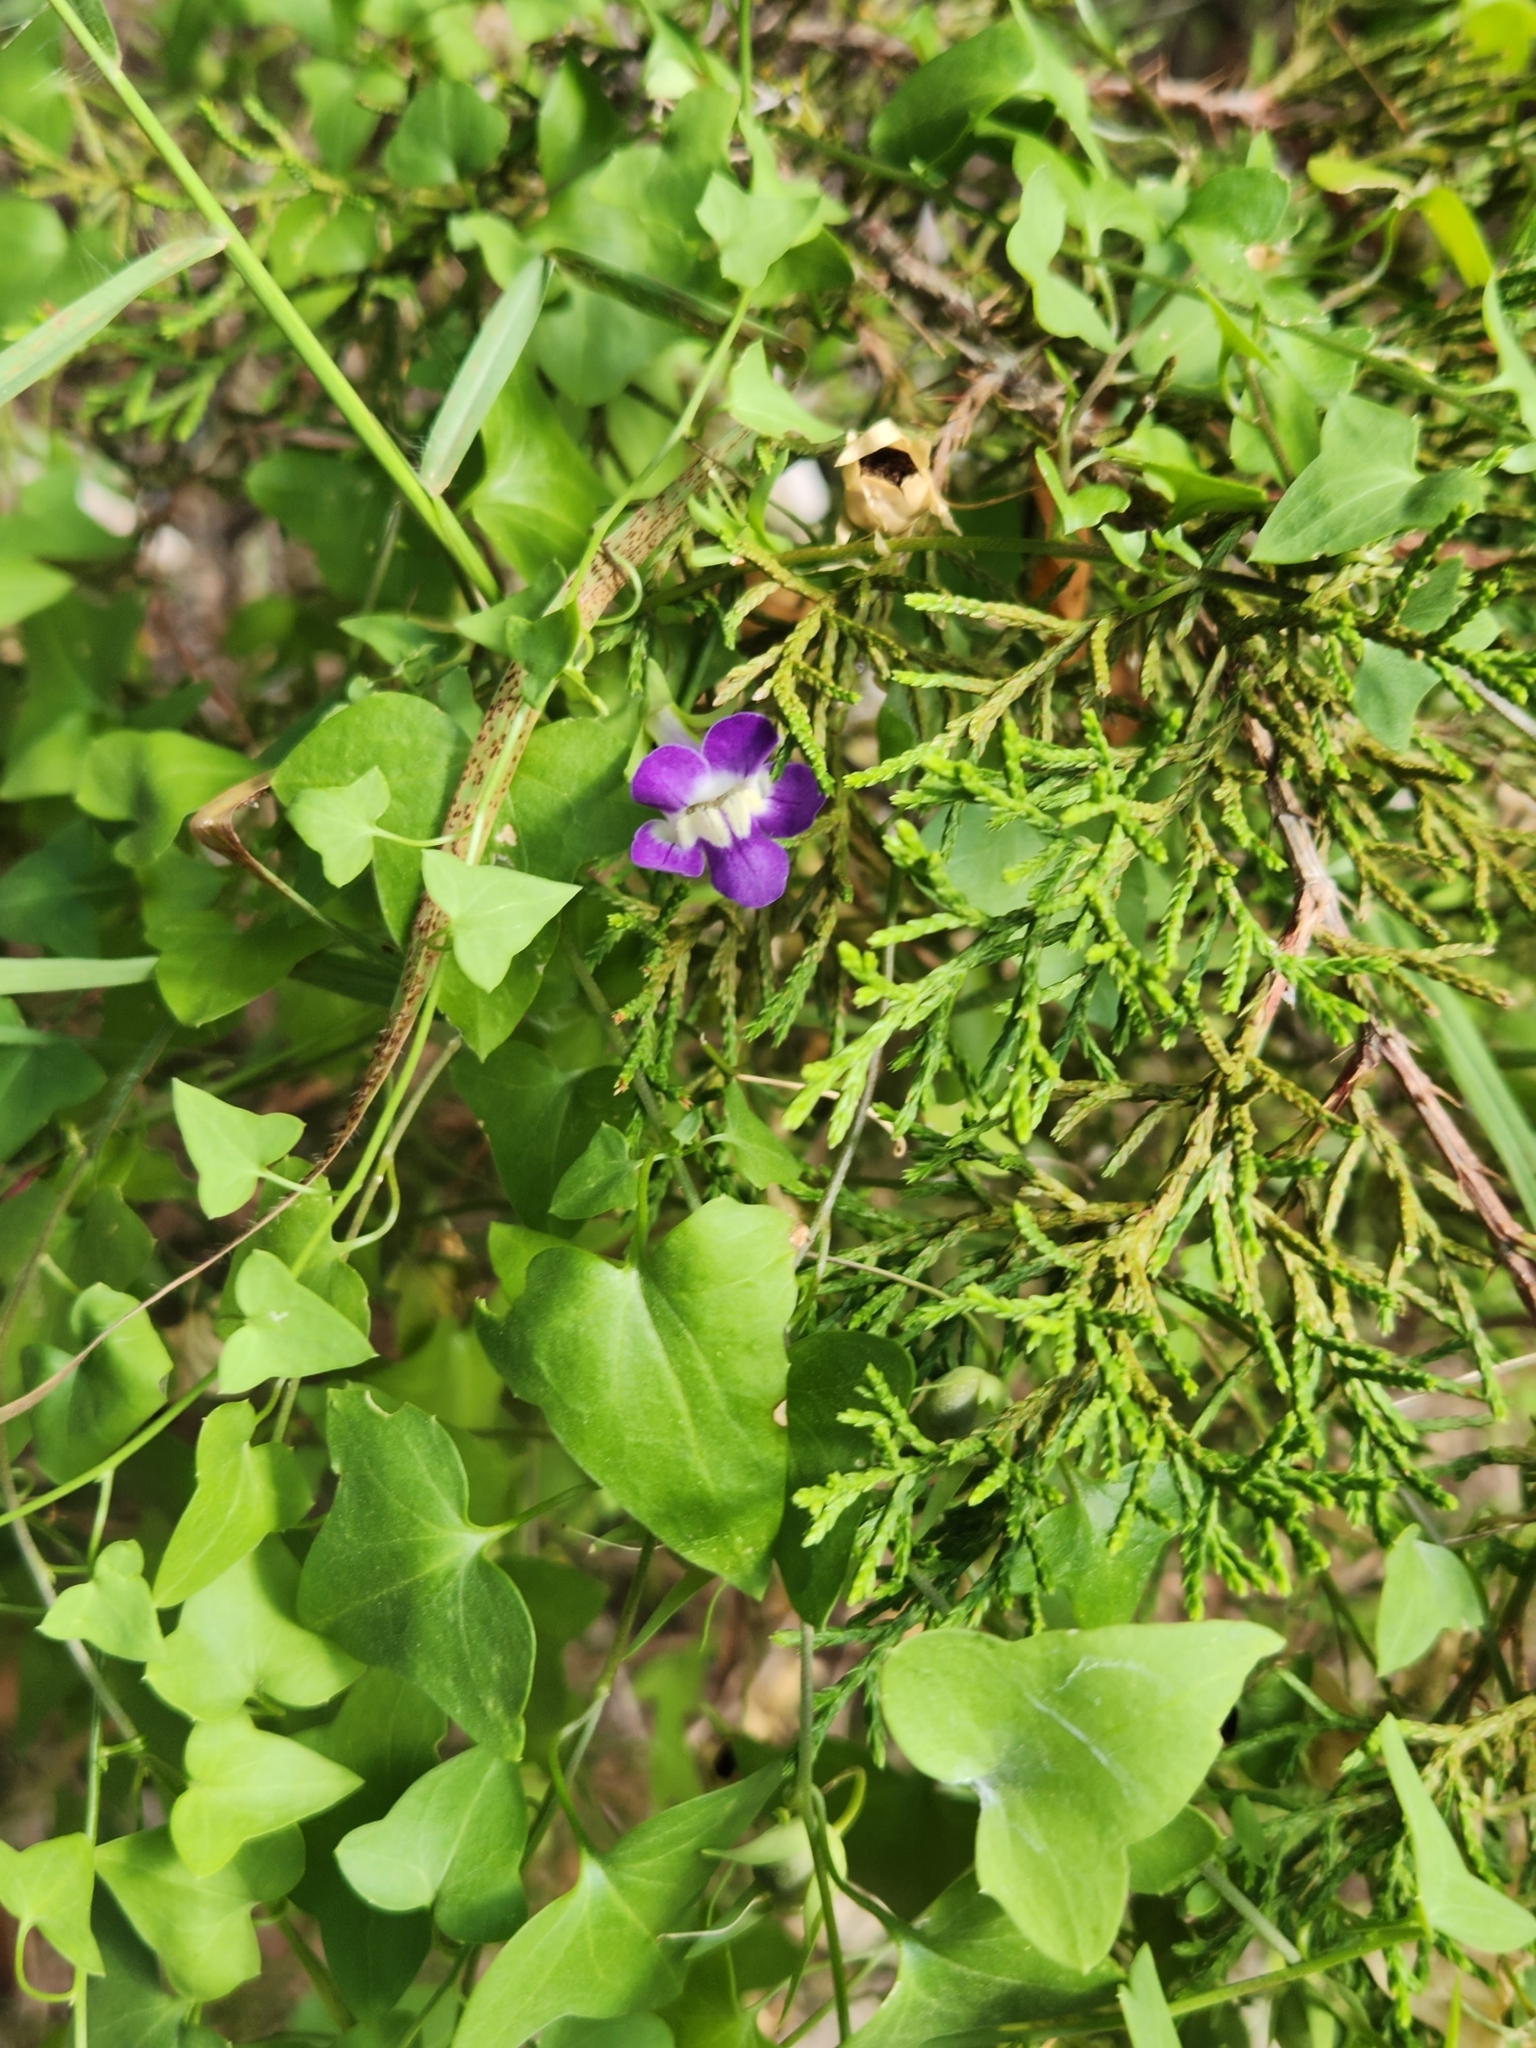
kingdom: Plantae
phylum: Tracheophyta
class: Magnoliopsida
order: Lamiales
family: Plantaginaceae
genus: Maurandella
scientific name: Maurandella antirrhiniflora
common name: Violet twining-snapdragon
